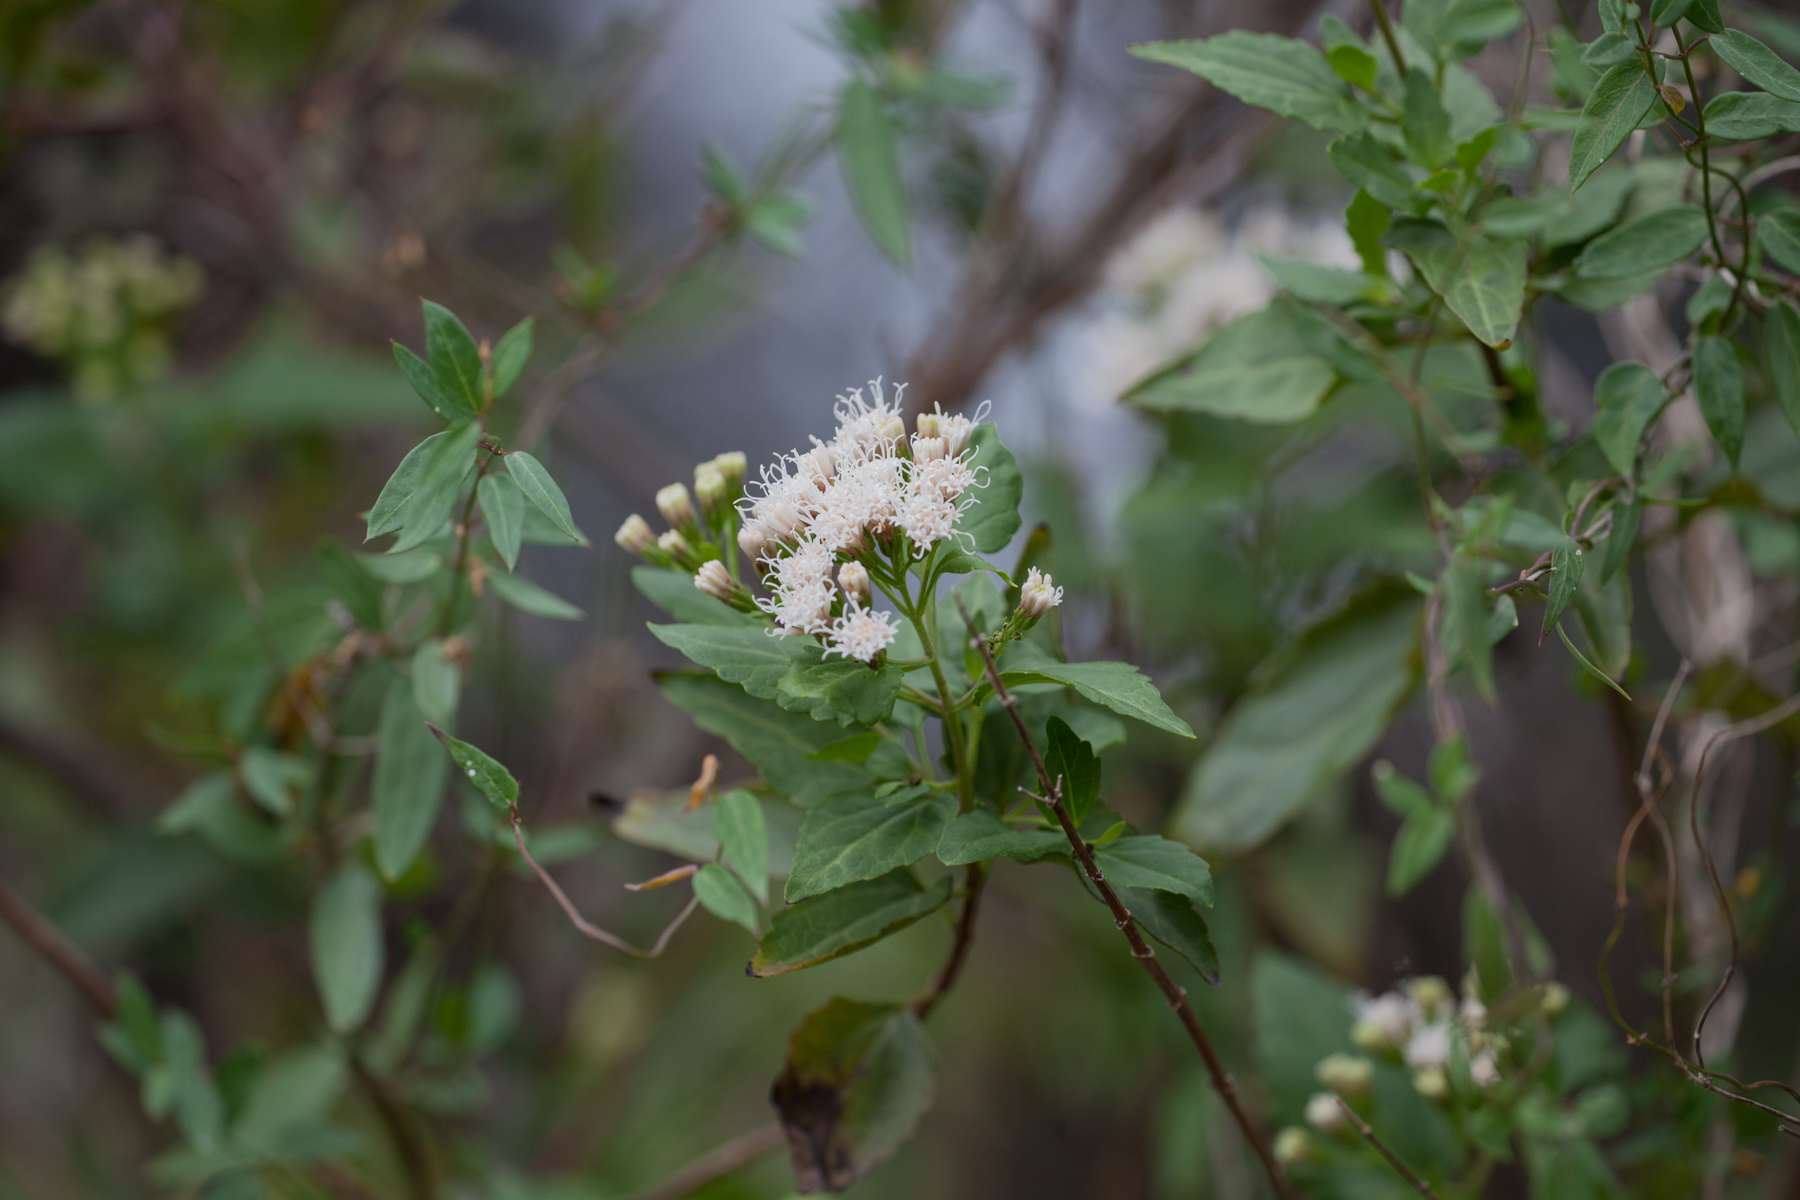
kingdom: Plantae
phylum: Tracheophyta
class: Magnoliopsida
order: Asterales
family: Asteraceae
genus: Ageratina
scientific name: Ageratina havanensis
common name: Havana snakeroot
